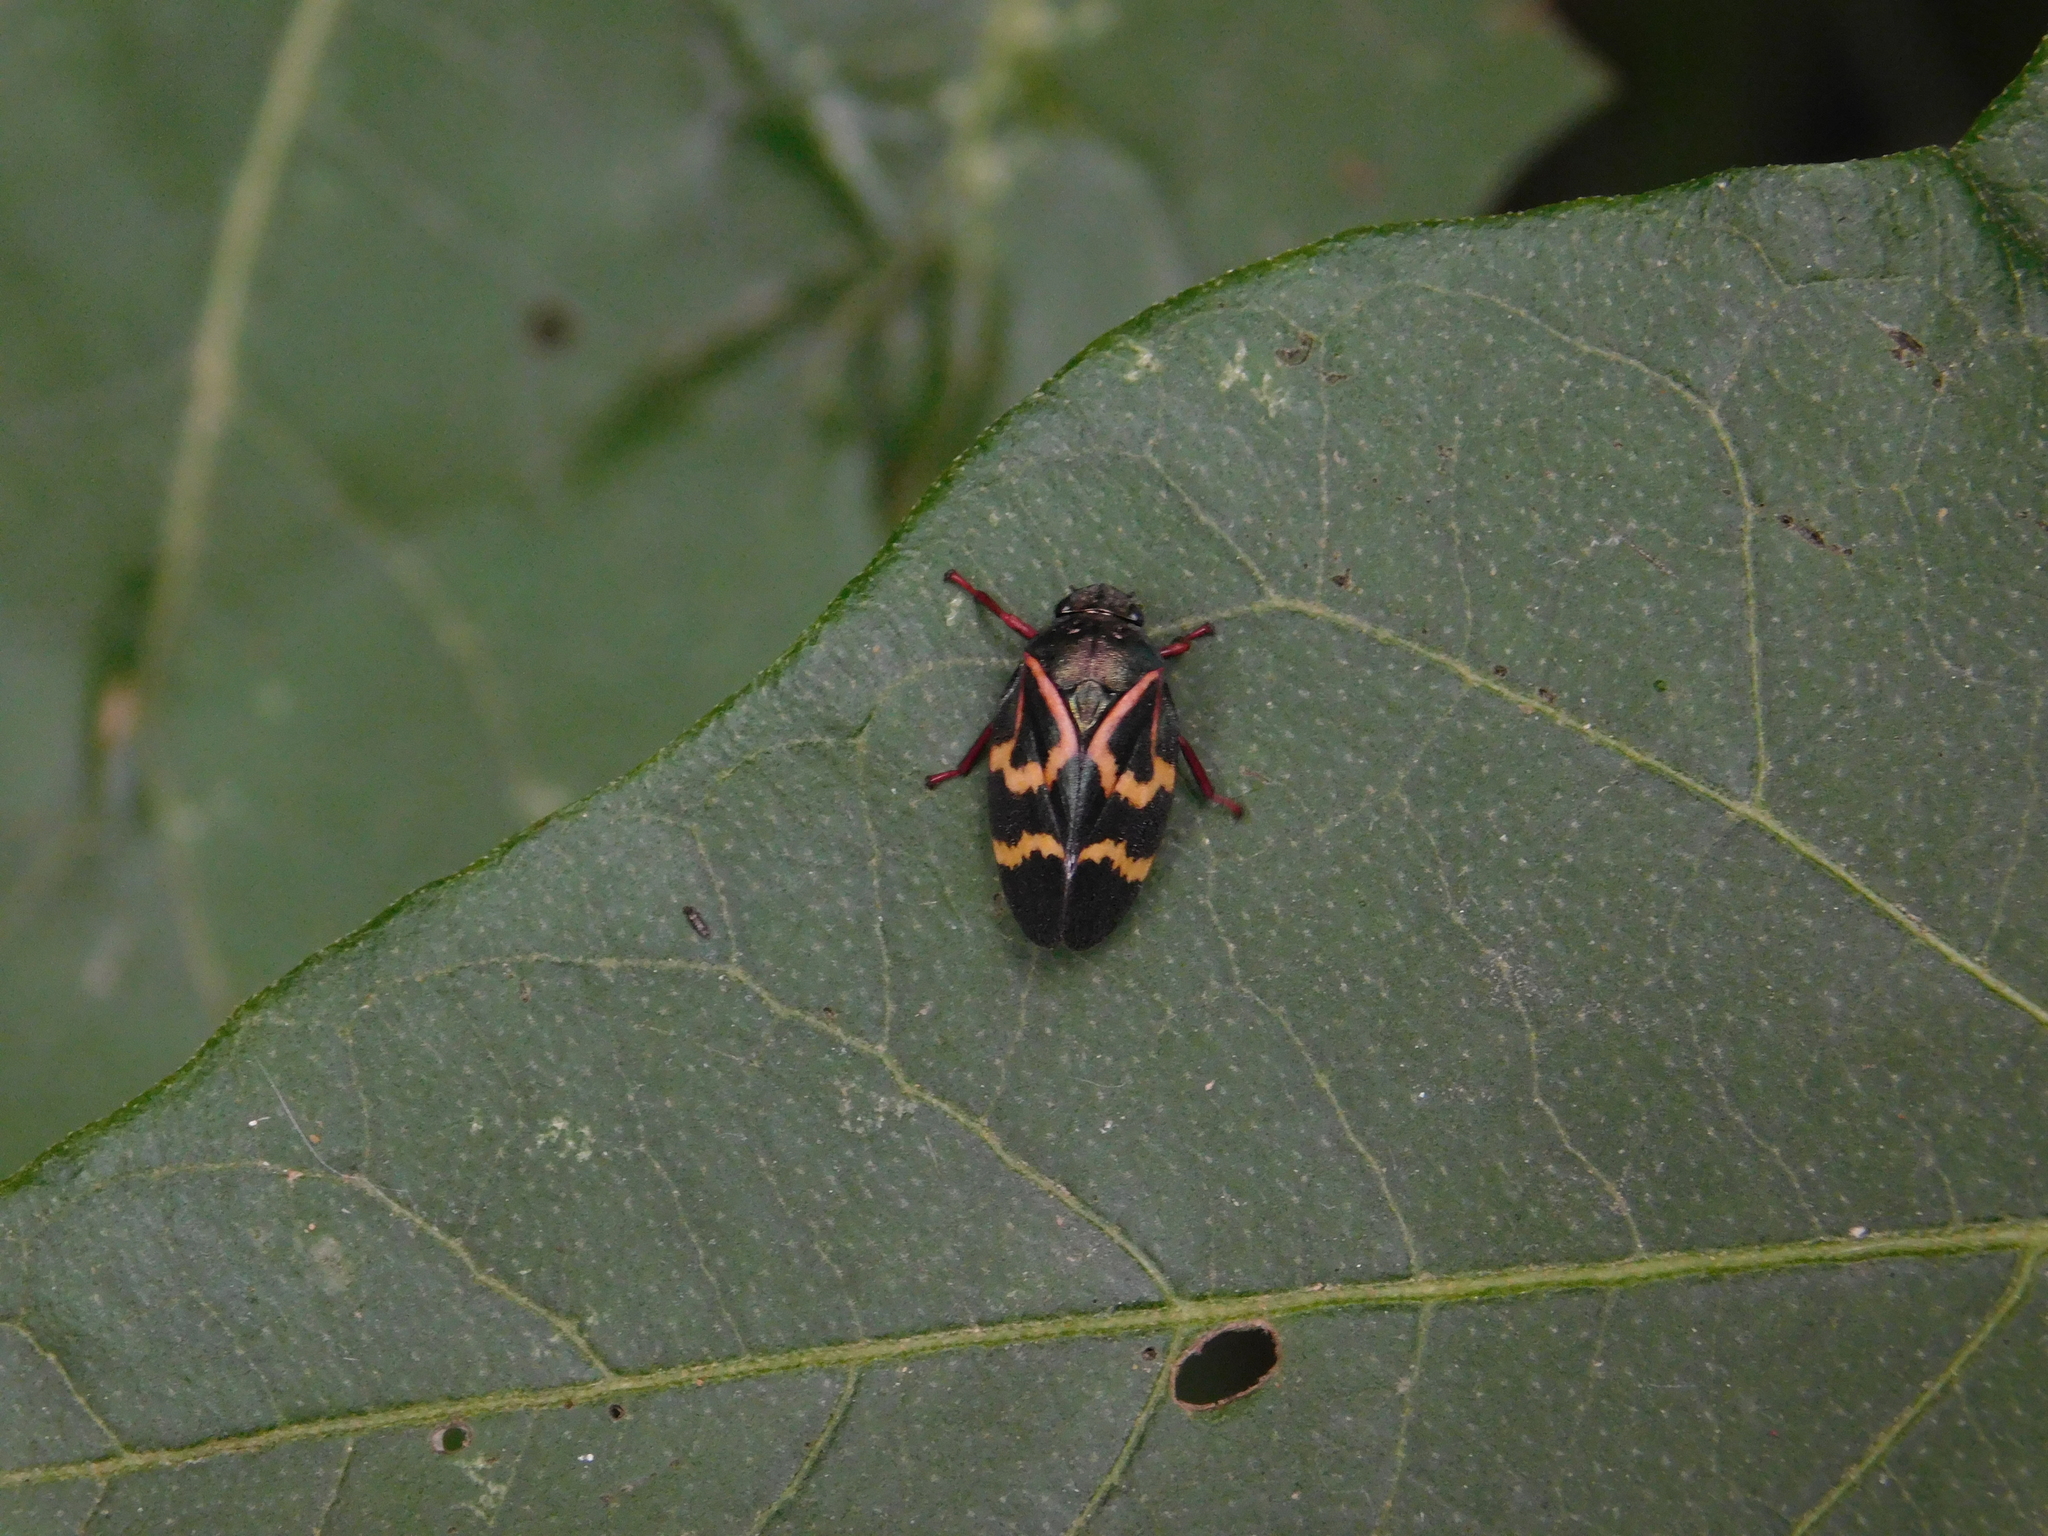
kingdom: Animalia
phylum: Arthropoda
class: Insecta
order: Hemiptera
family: Cercopidae
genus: Deois
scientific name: Deois flexuosa
